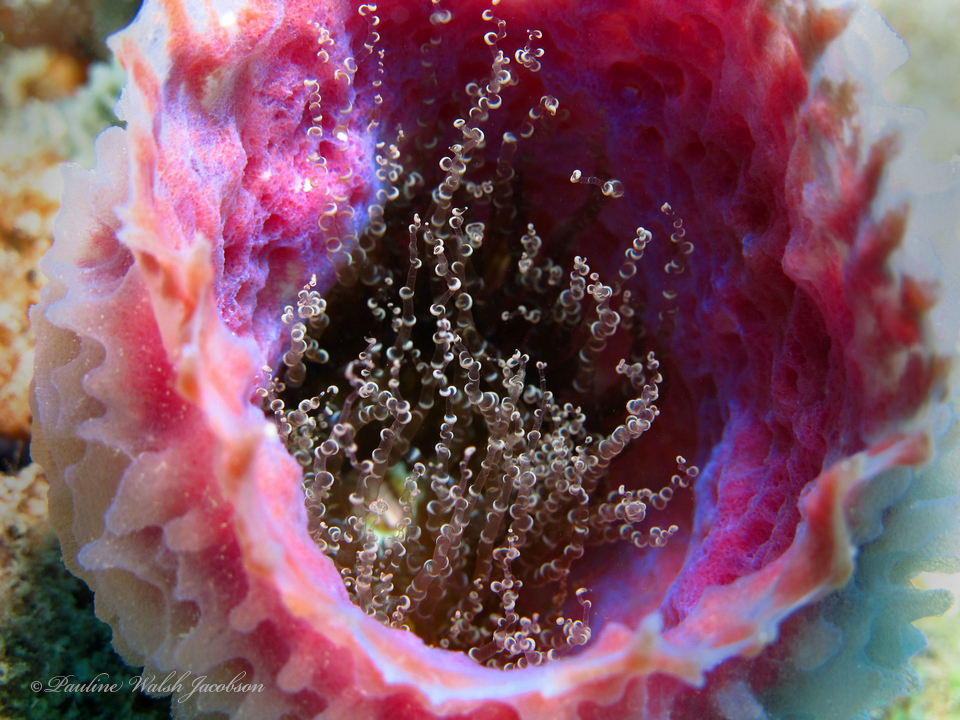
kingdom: Animalia
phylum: Cnidaria
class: Anthozoa
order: Actiniaria
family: Aiptasiidae
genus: Bartholomea
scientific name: Bartholomea annulata
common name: Corkscrew anemone
